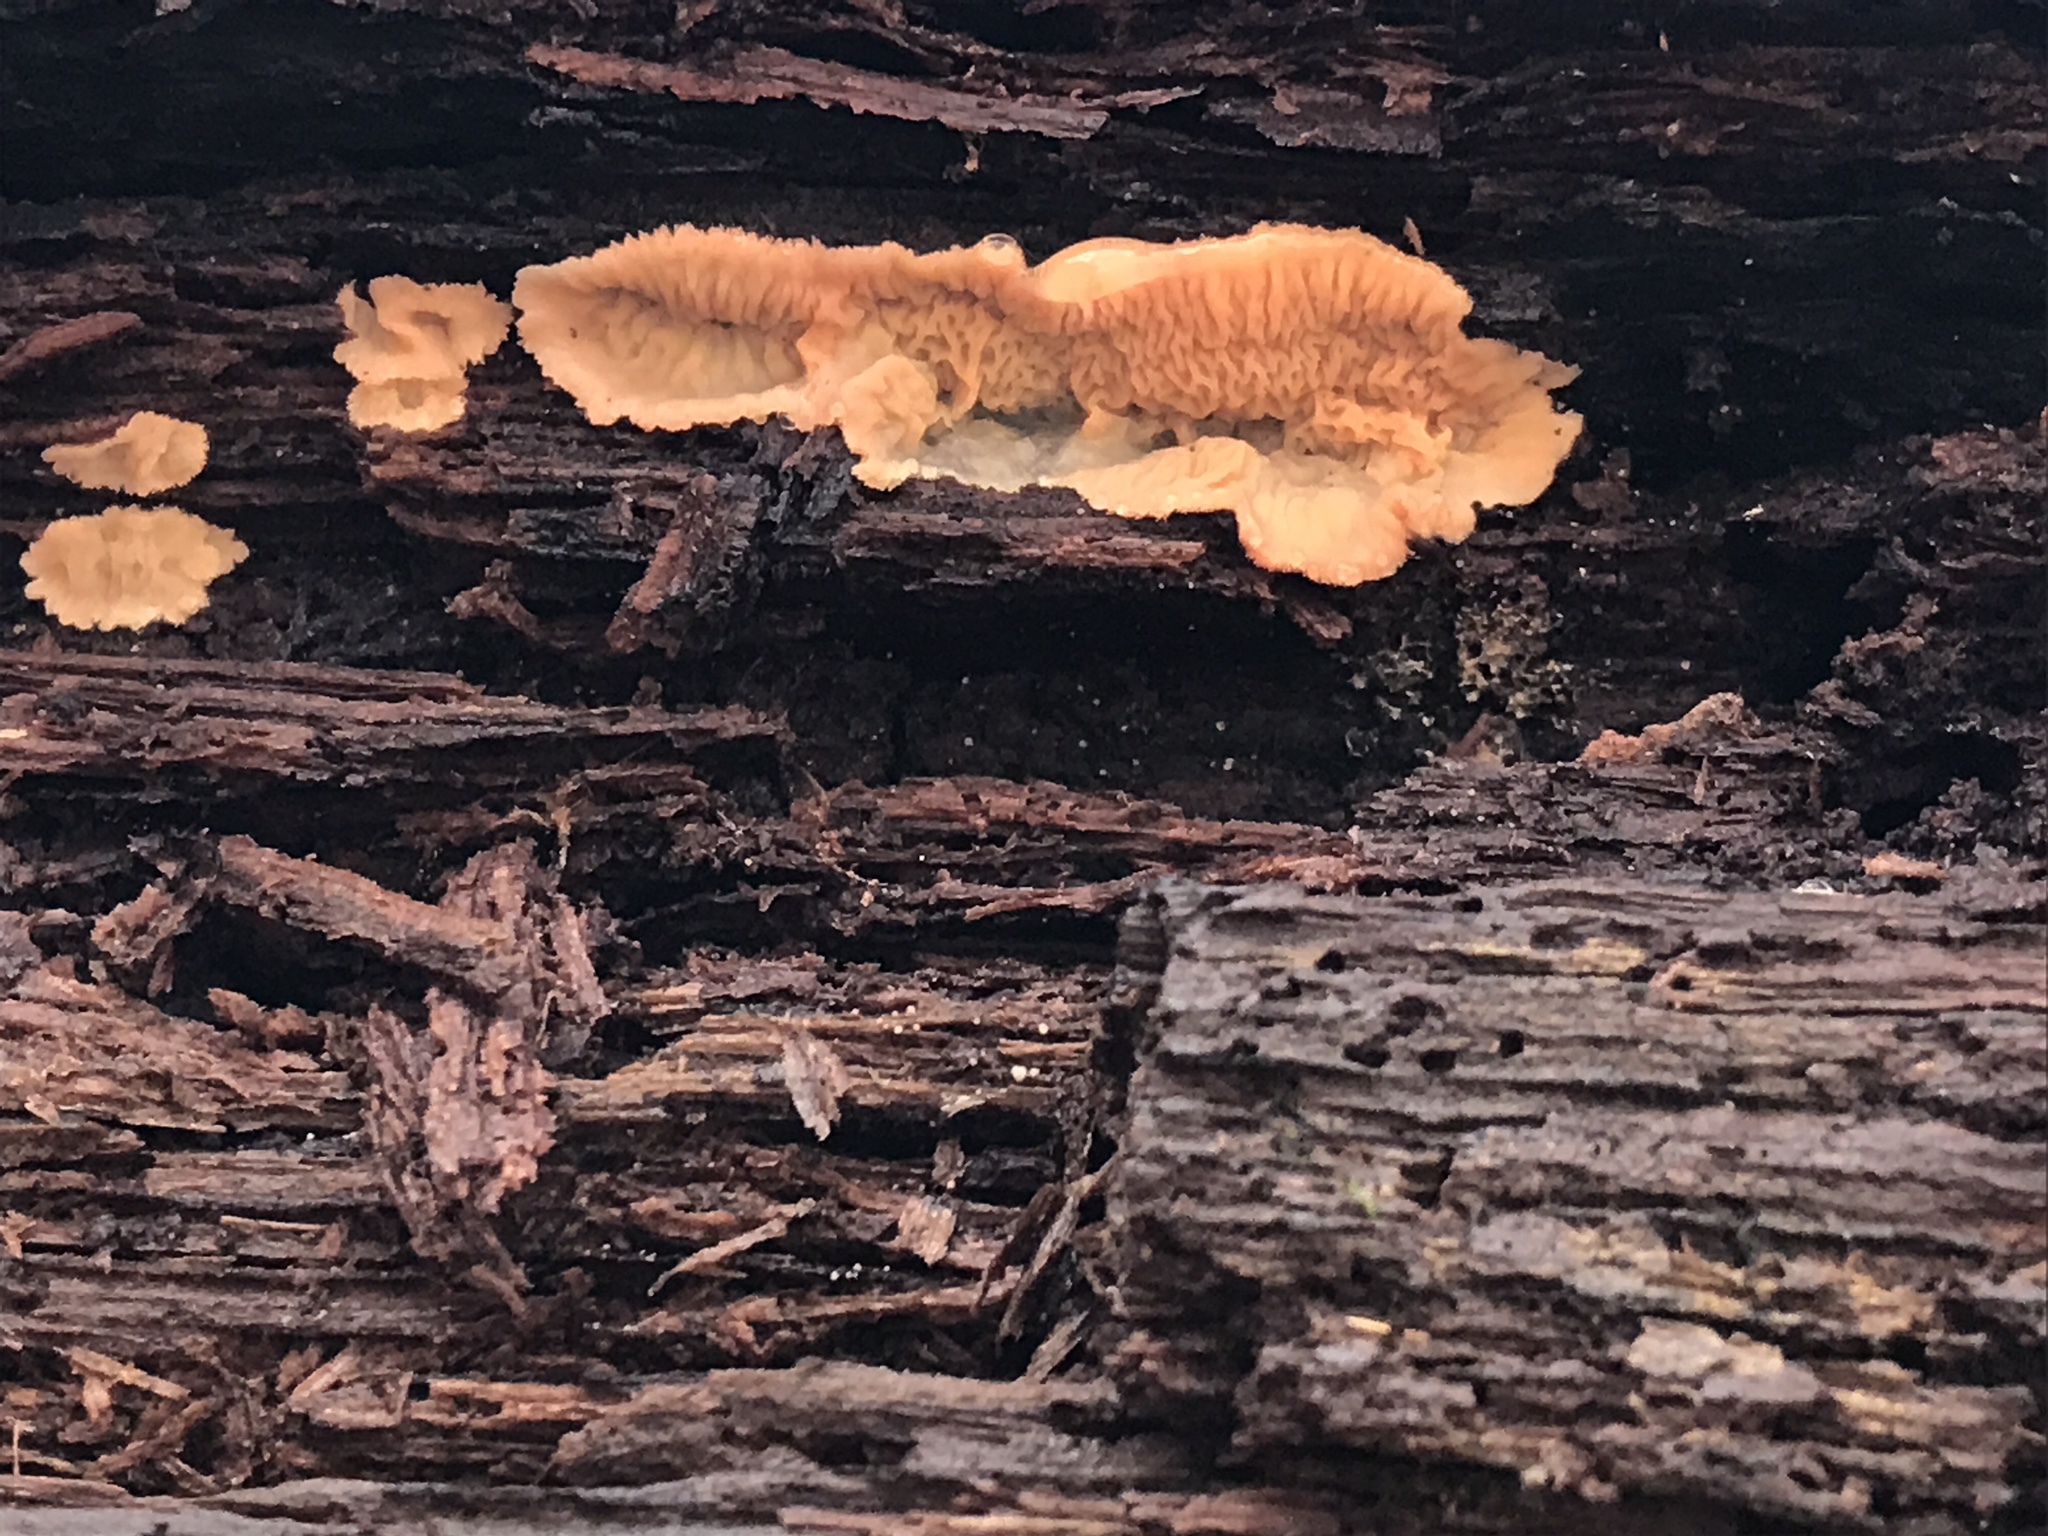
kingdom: Fungi
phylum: Basidiomycota
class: Agaricomycetes
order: Polyporales
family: Meruliaceae
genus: Phlebia
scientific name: Phlebia radiata
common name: Wrinkled crust
